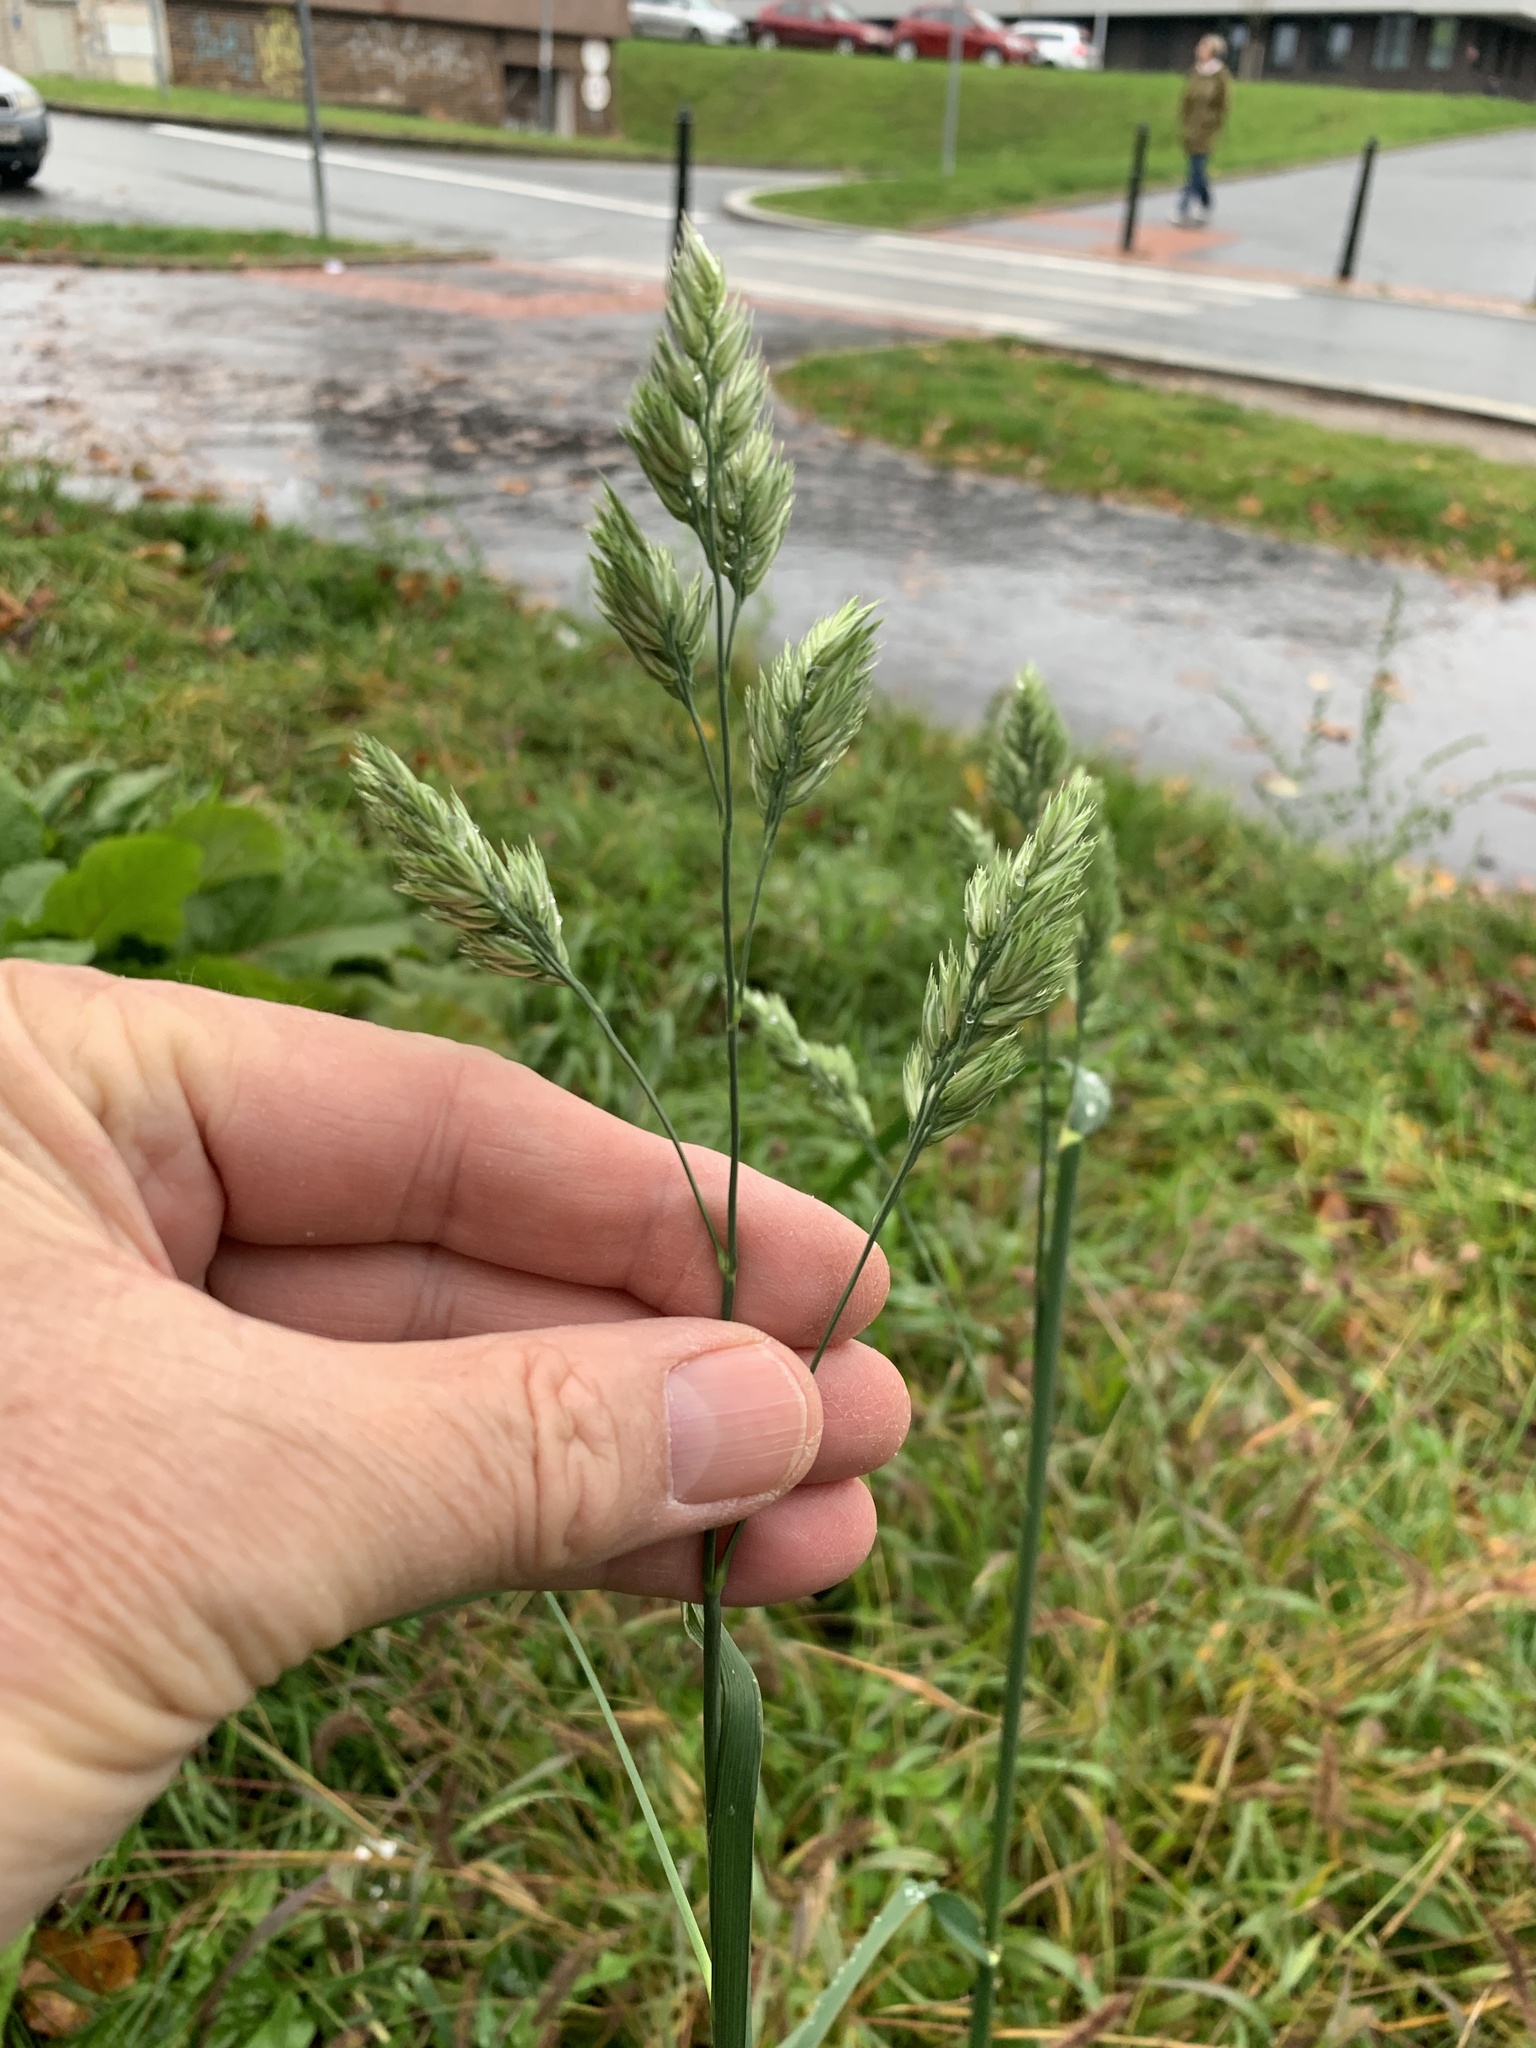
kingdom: Plantae
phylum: Tracheophyta
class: Liliopsida
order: Poales
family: Poaceae
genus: Dactylis
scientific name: Dactylis glomerata
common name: Orchardgrass
